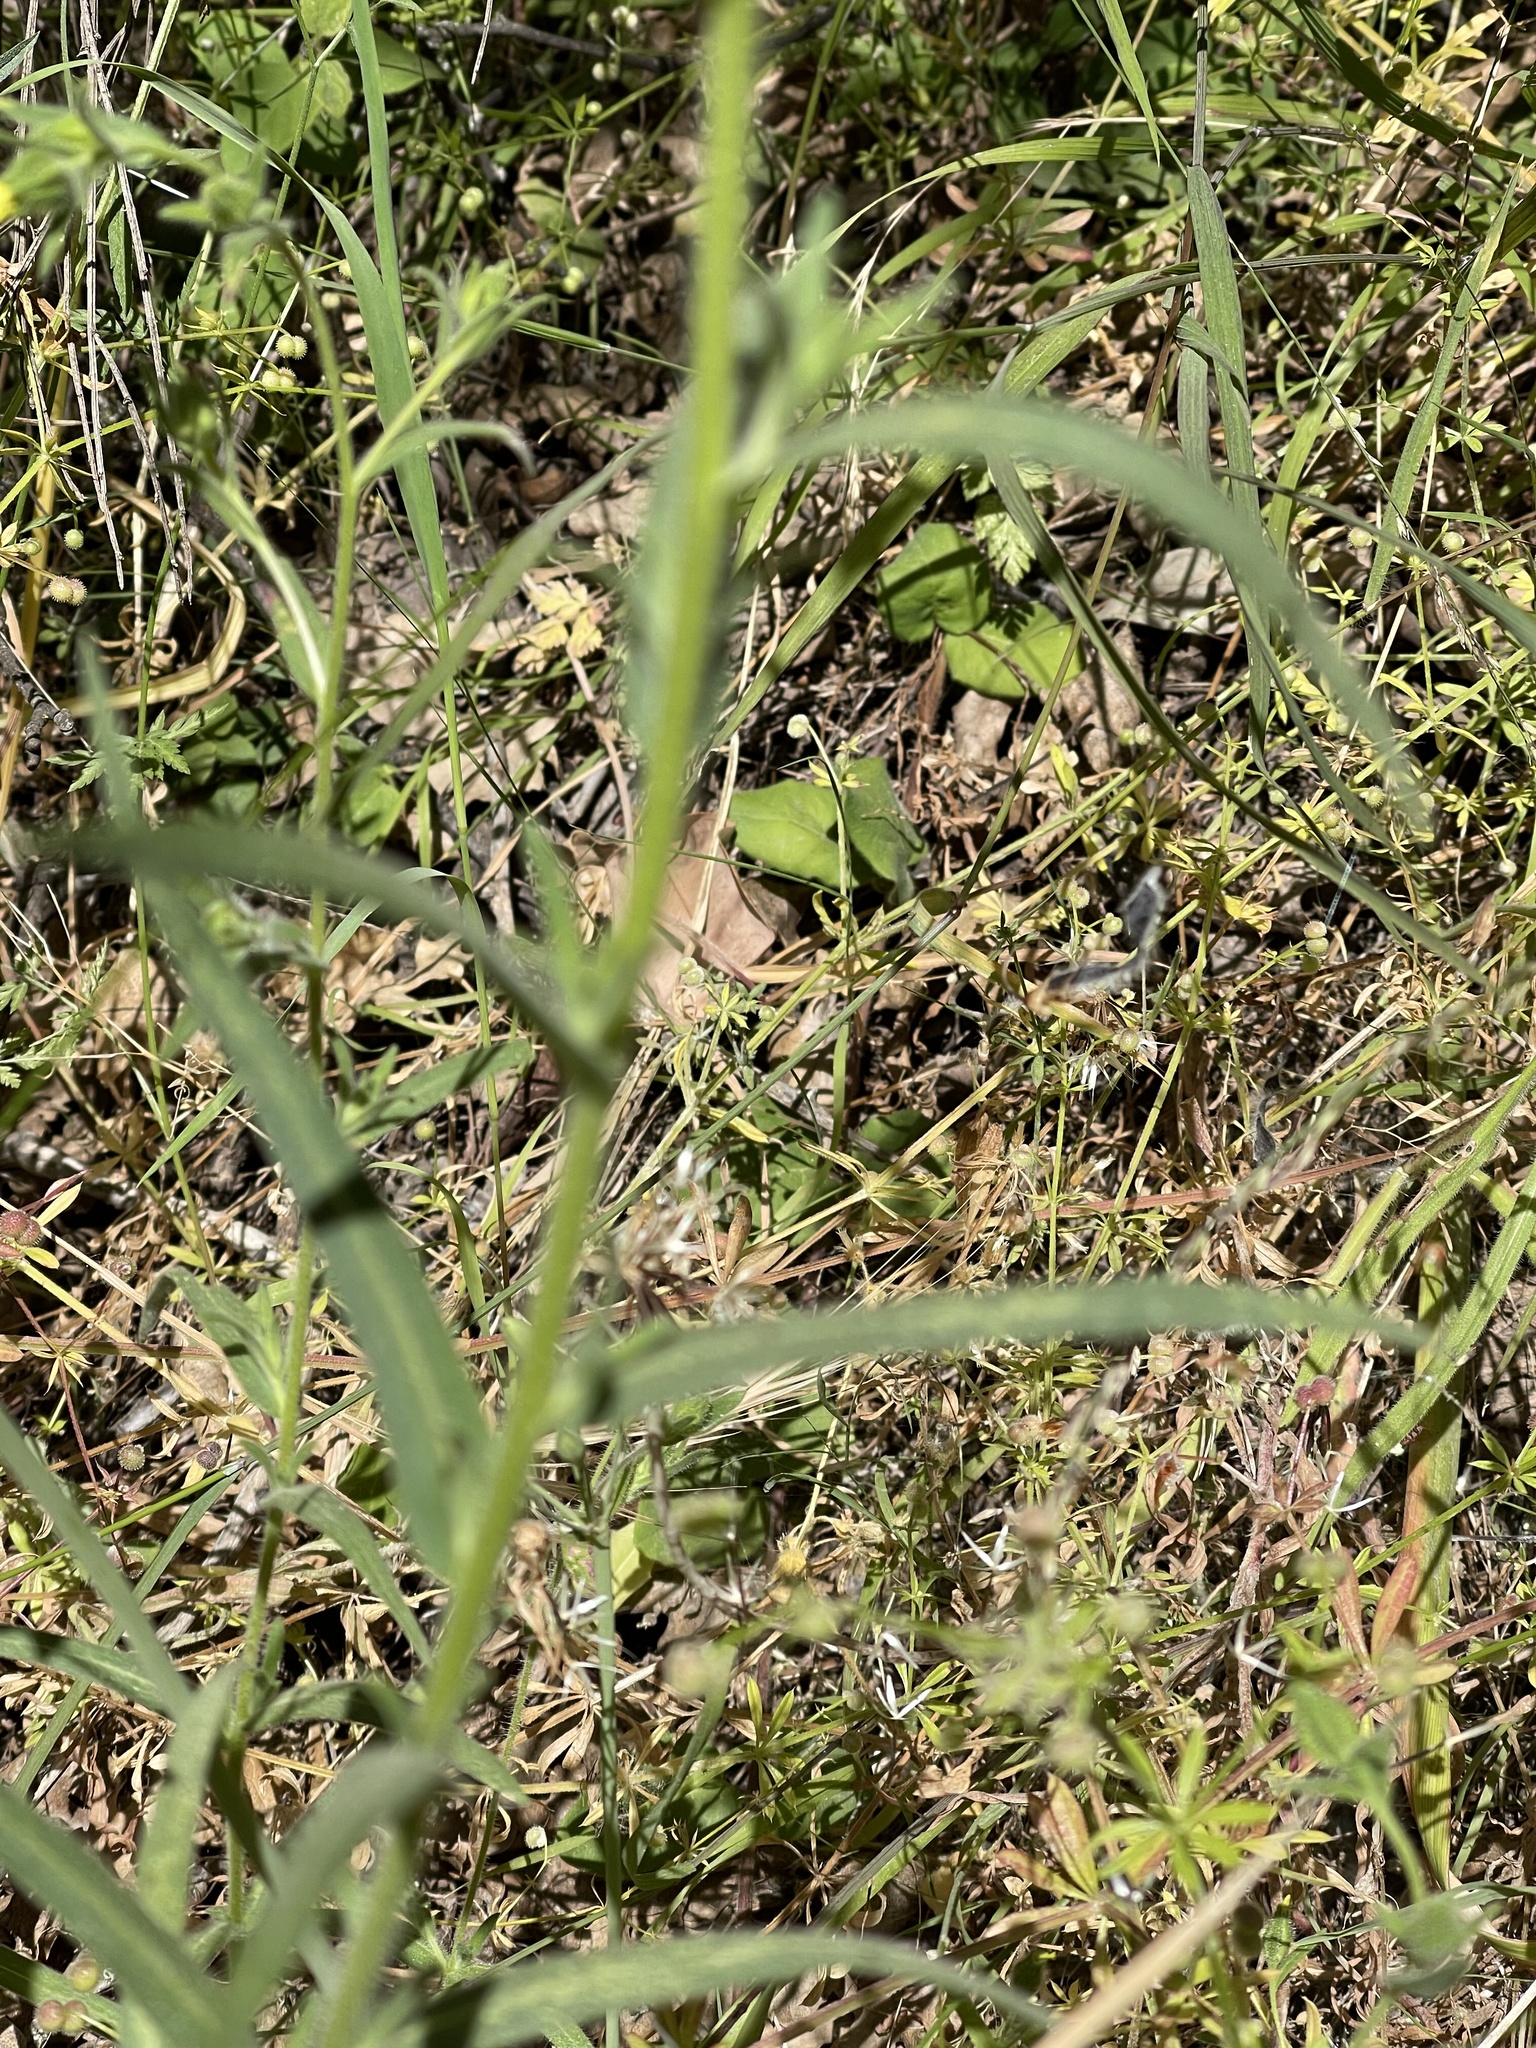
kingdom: Plantae
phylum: Tracheophyta
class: Liliopsida
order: Asparagales
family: Asparagaceae
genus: Triteleia
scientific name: Triteleia laxa
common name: Triplet-lily
